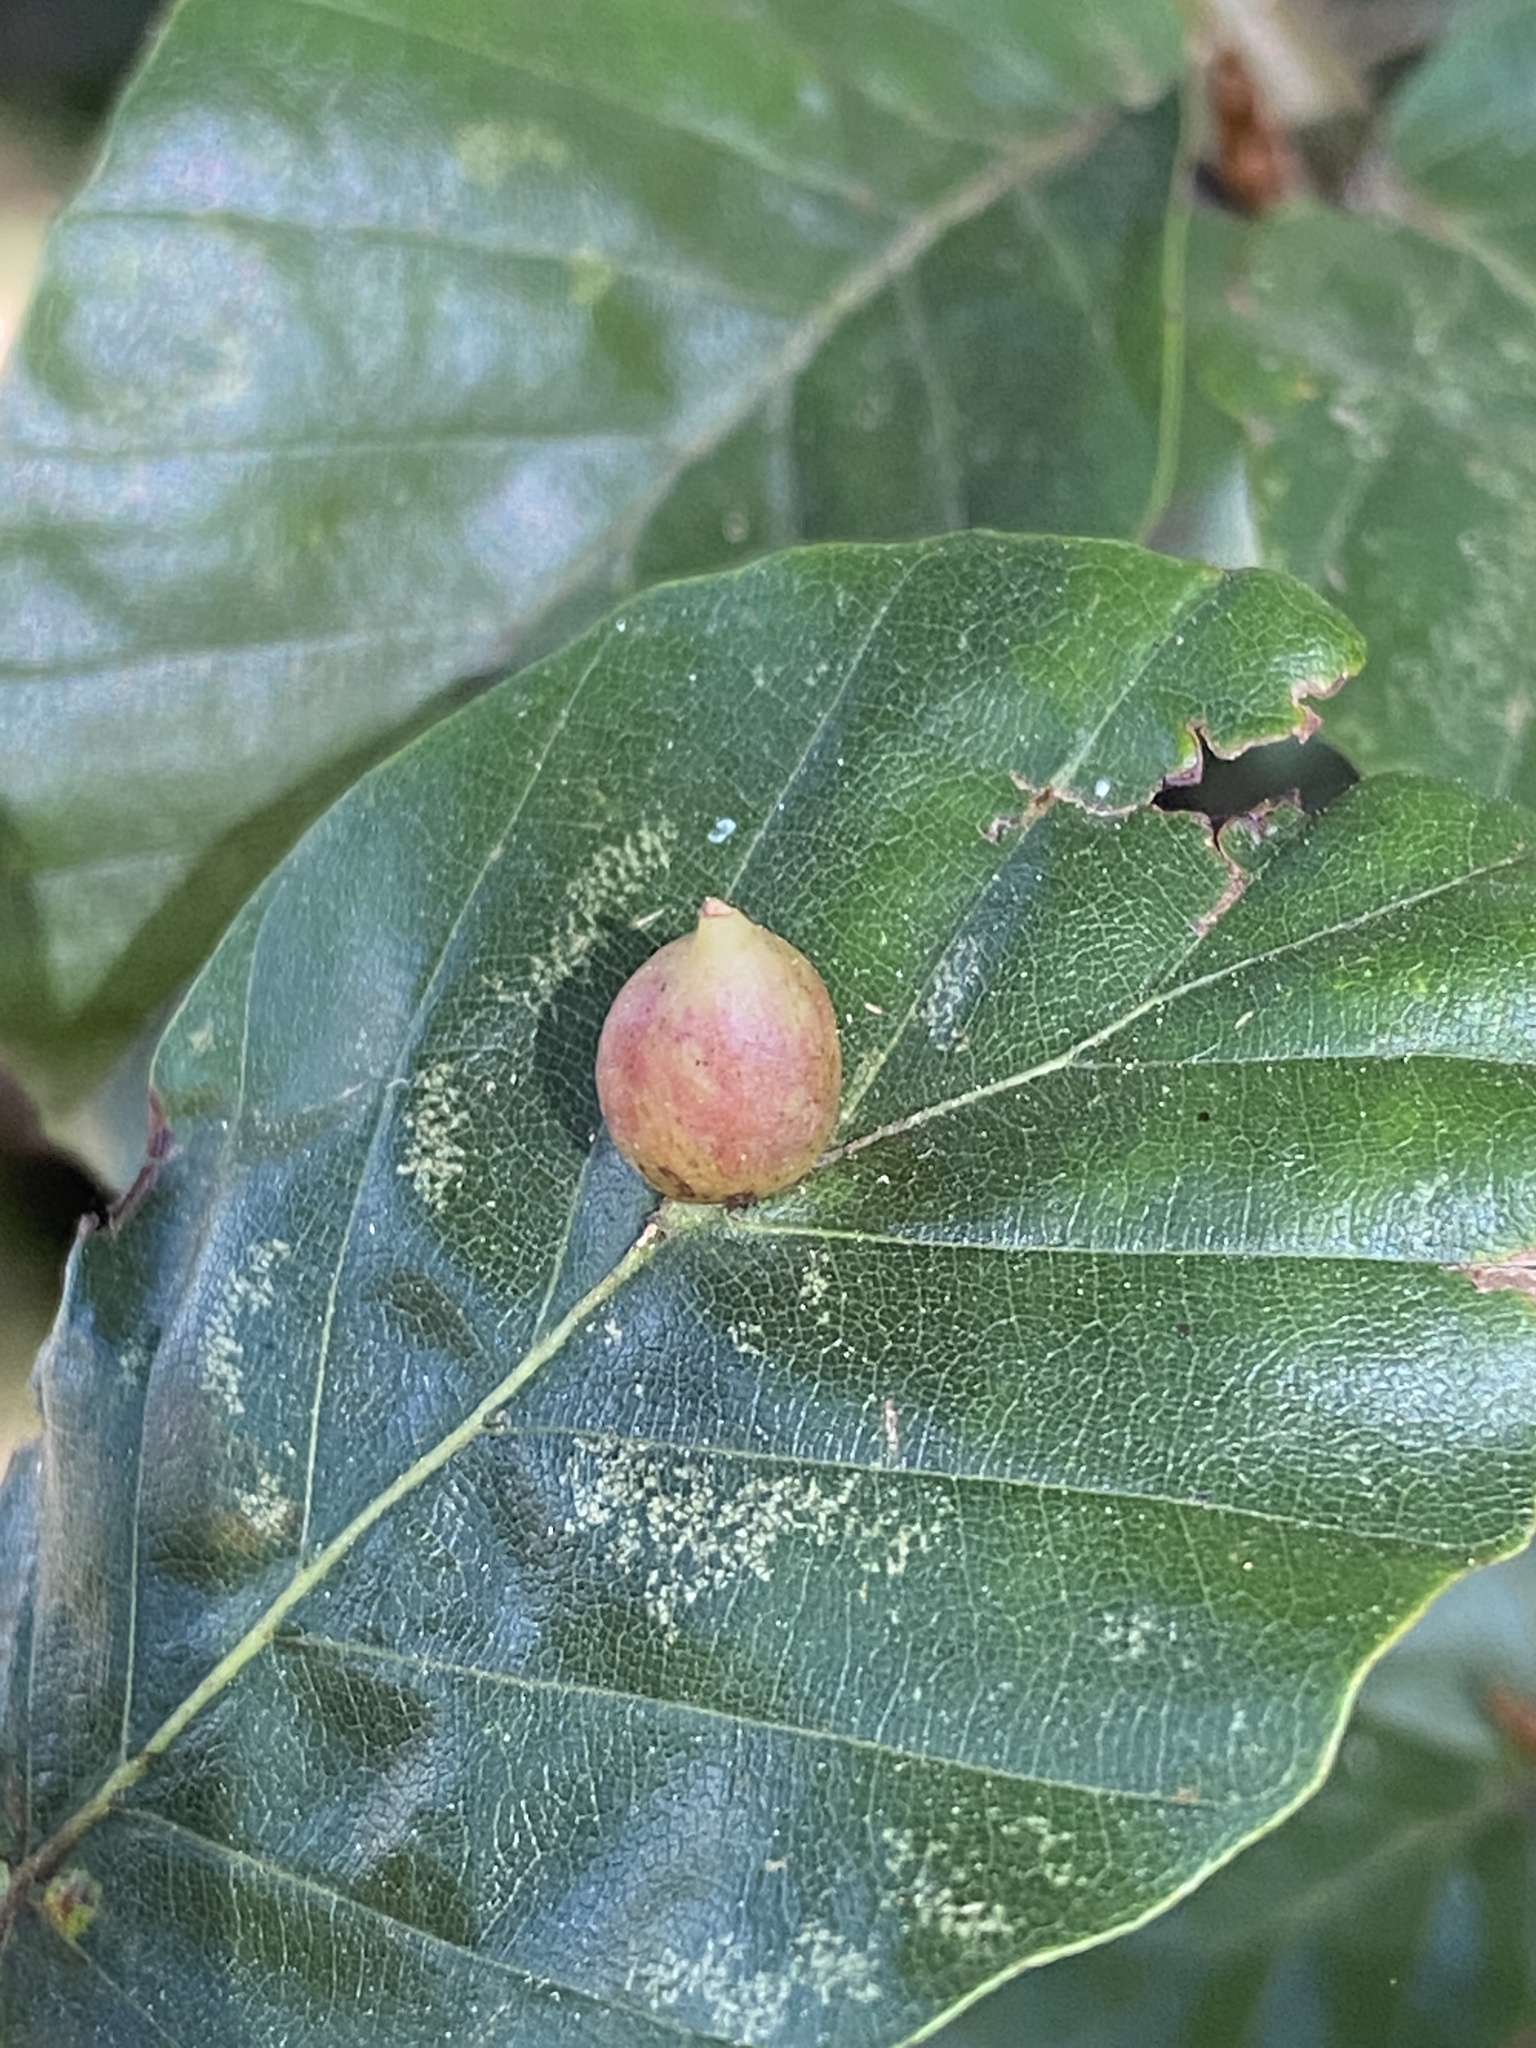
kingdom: Animalia
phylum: Arthropoda
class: Insecta
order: Diptera
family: Cecidomyiidae
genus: Mikiola
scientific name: Mikiola fagi
